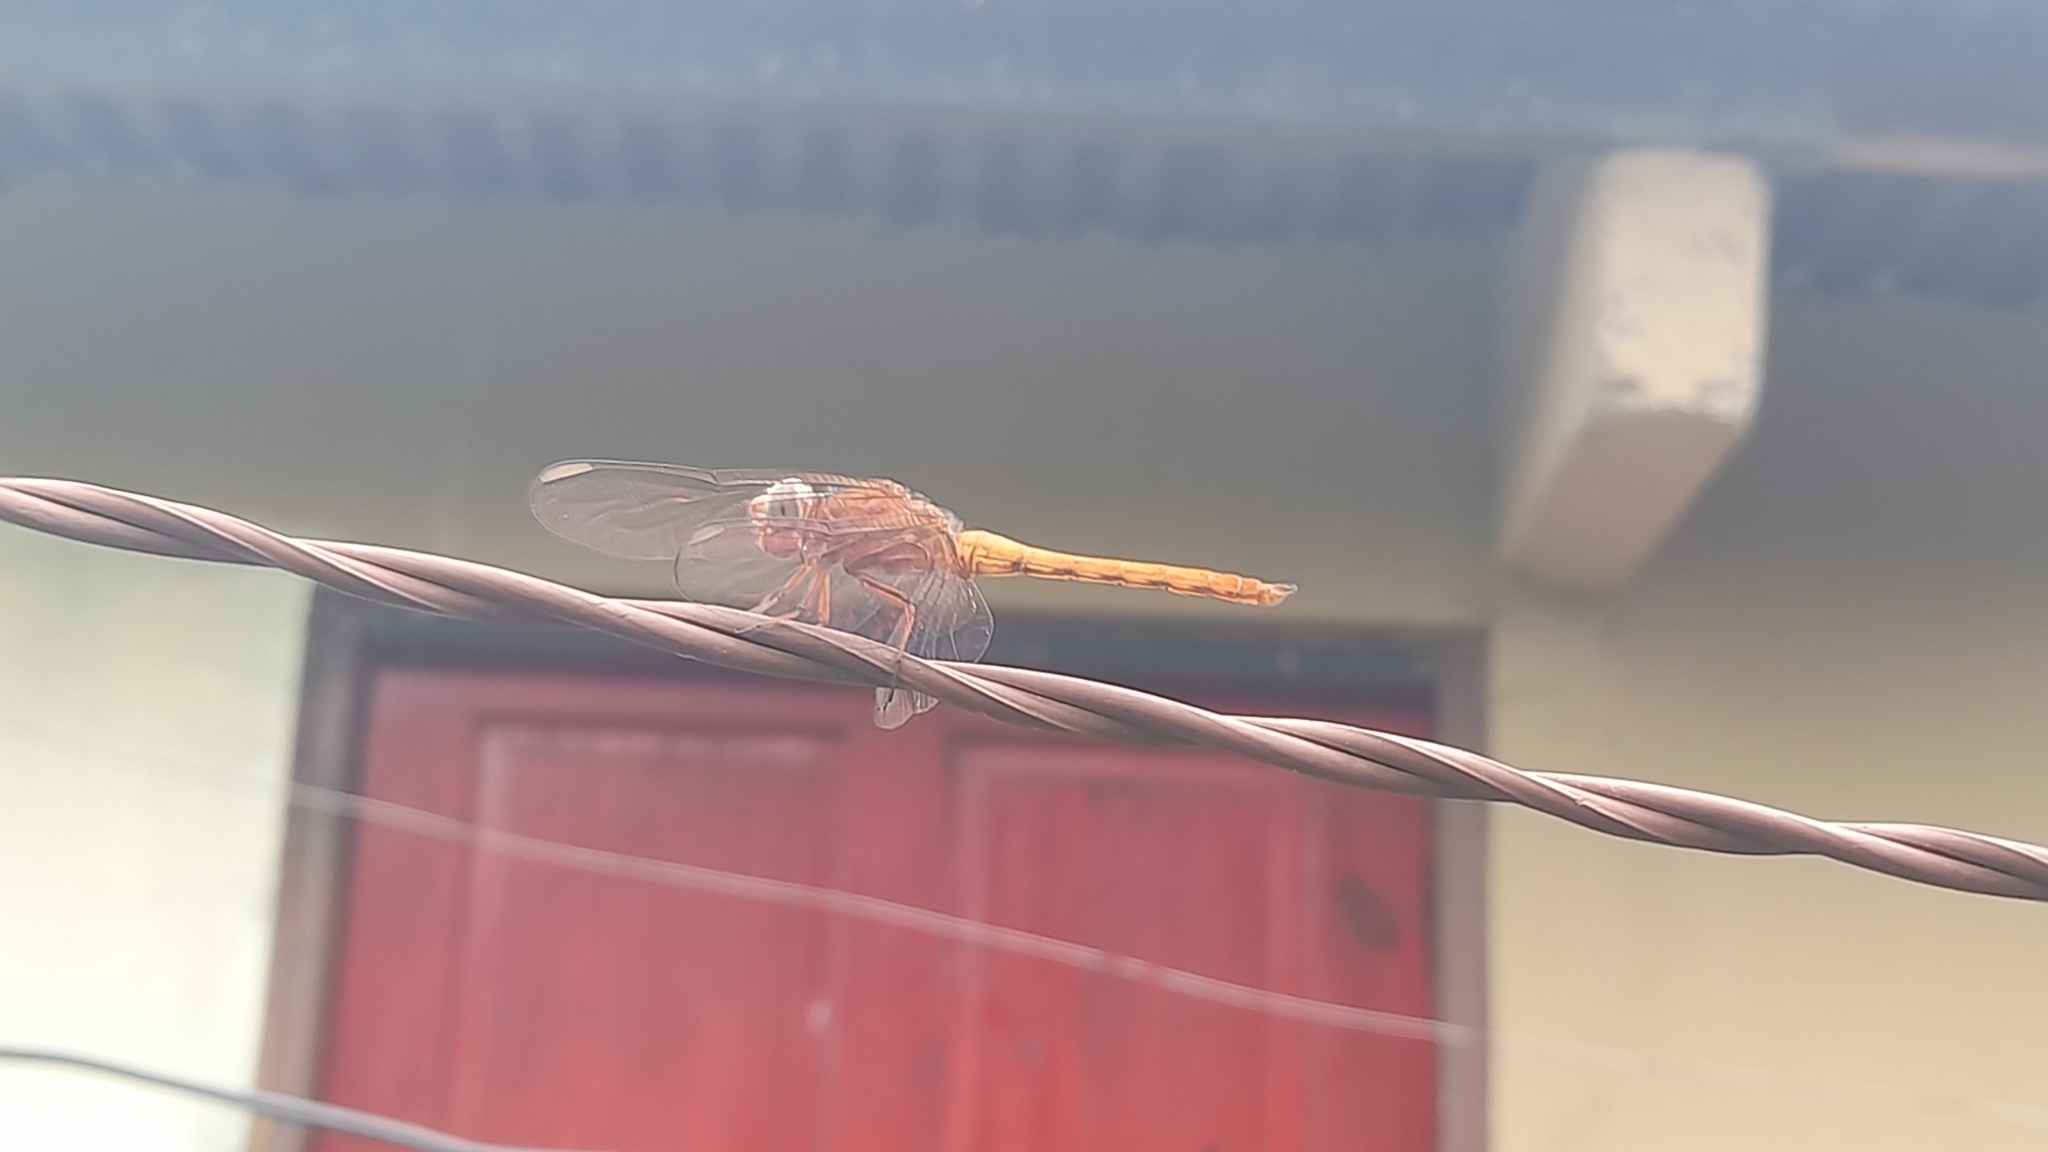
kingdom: Animalia
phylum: Arthropoda
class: Insecta
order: Odonata
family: Libellulidae
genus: Orthemis
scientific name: Orthemis schmidti
